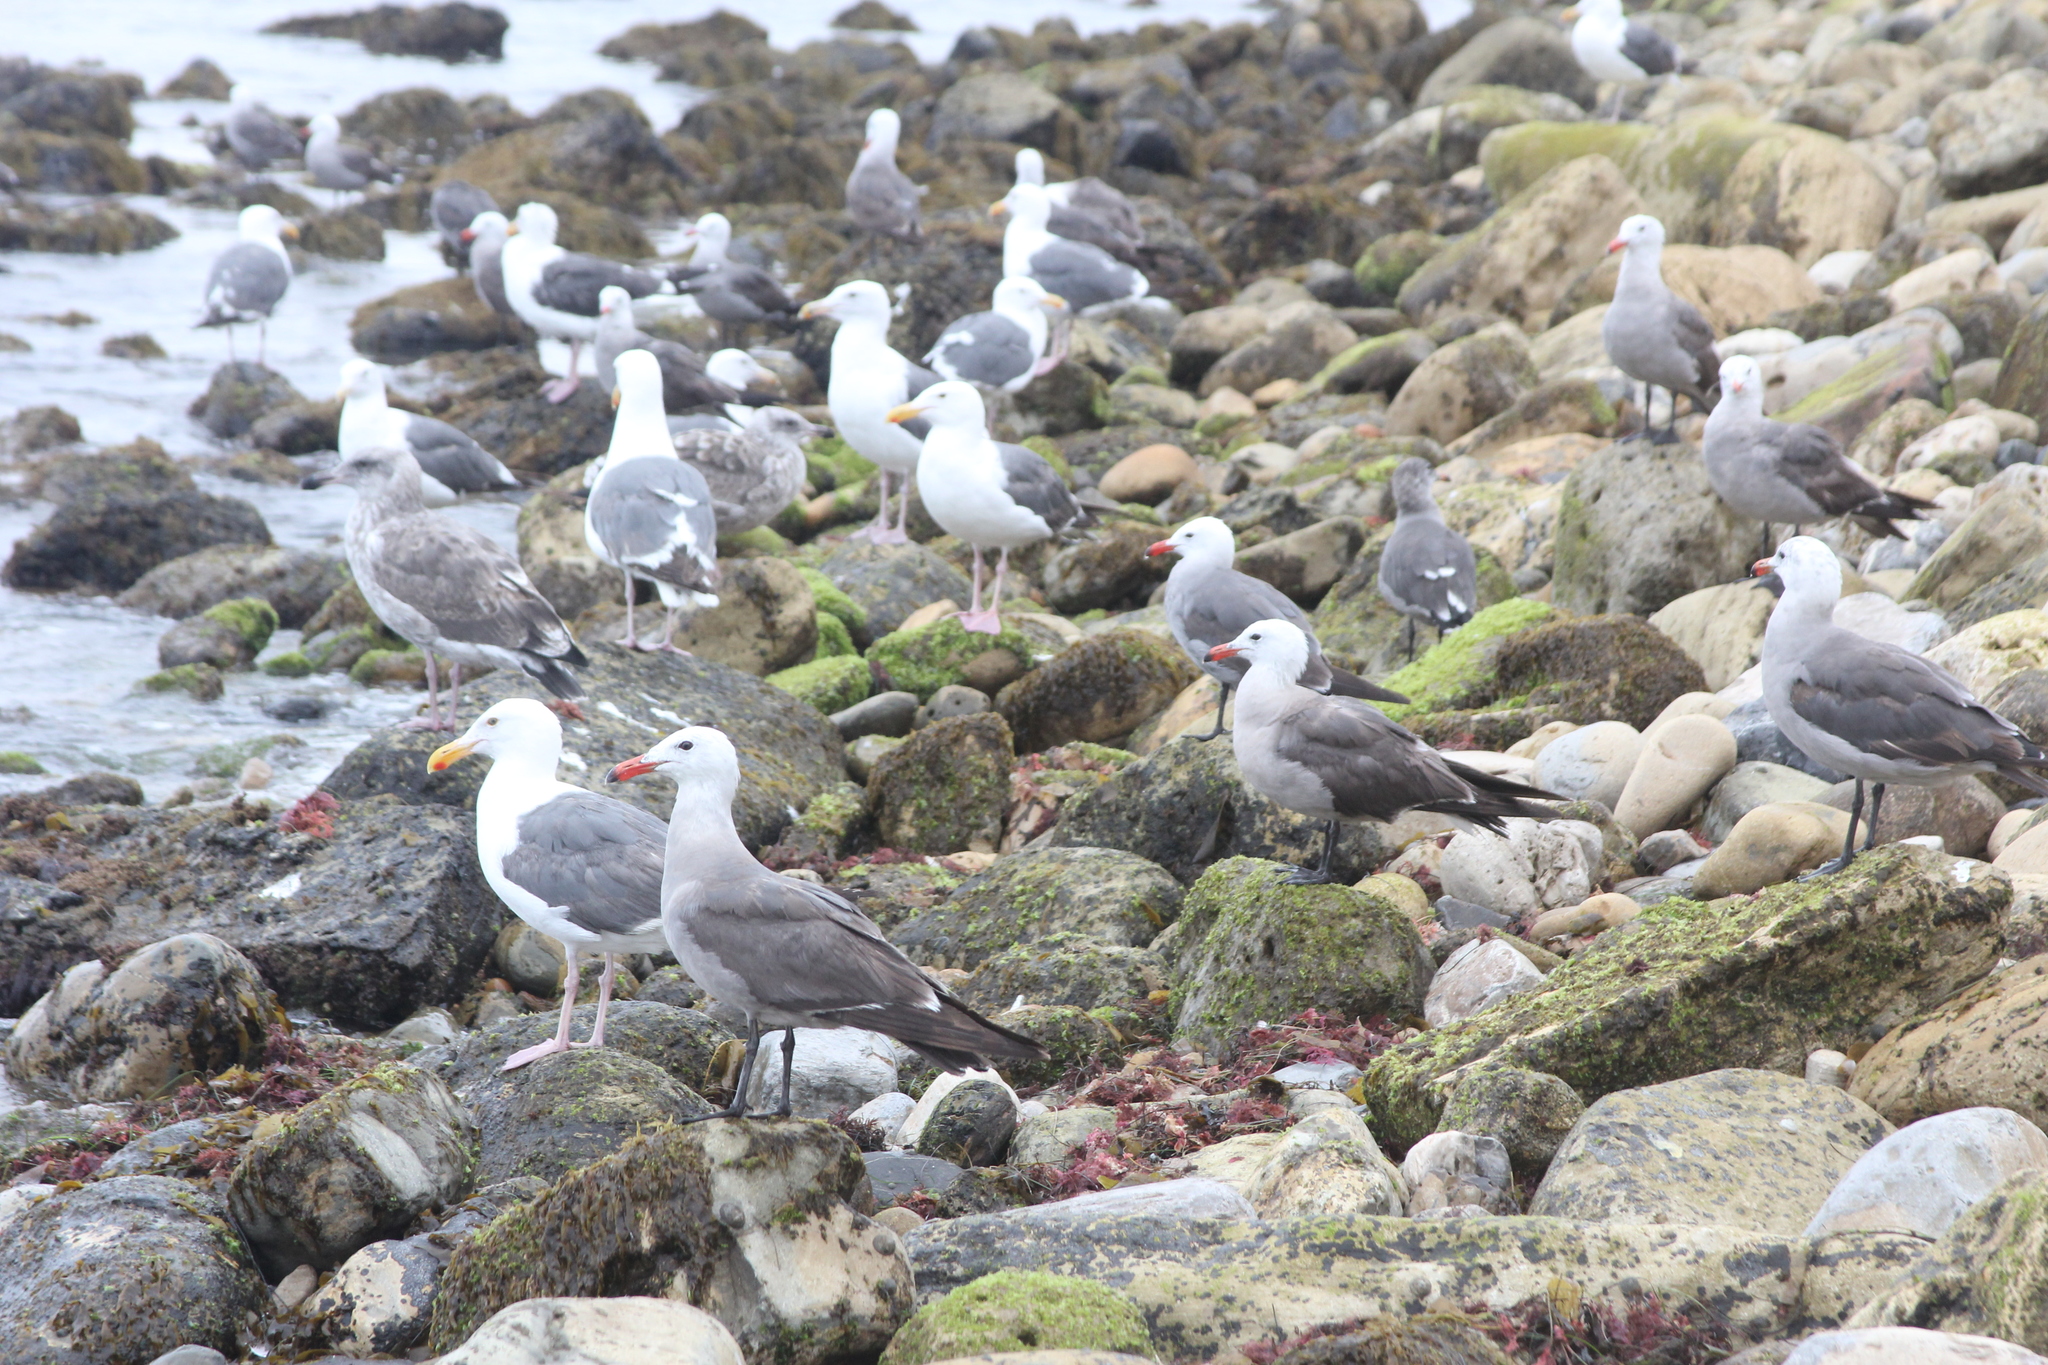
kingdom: Animalia
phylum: Chordata
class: Aves
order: Charadriiformes
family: Laridae
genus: Larus
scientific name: Larus occidentalis
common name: Western gull
